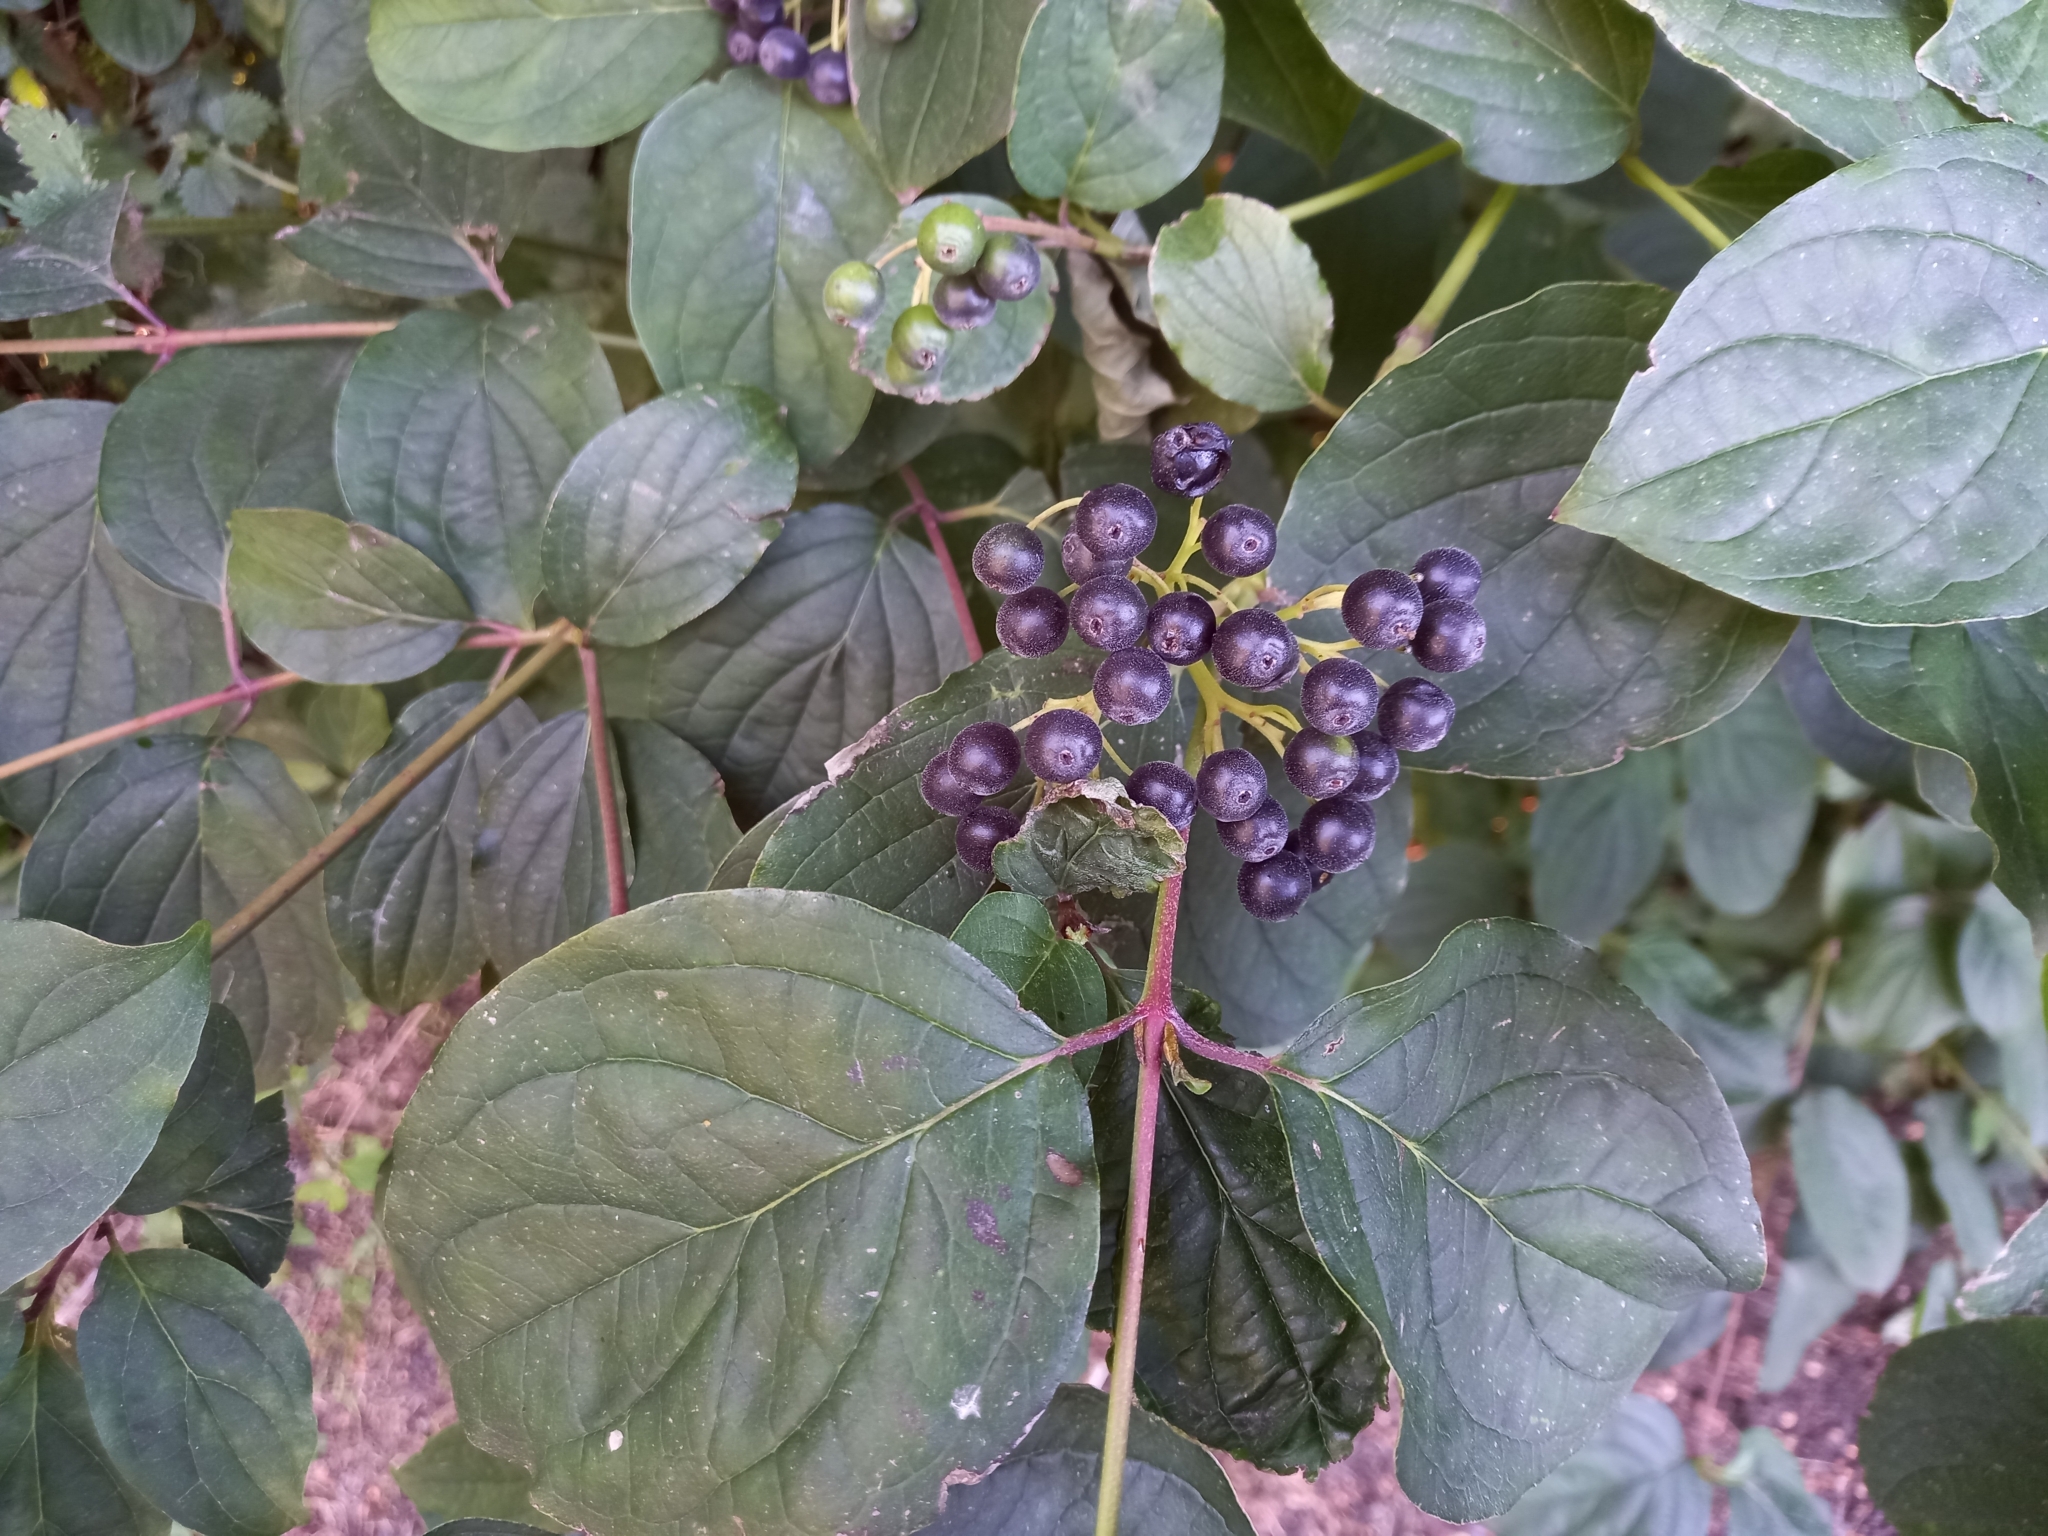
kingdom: Plantae
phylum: Tracheophyta
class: Magnoliopsida
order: Cornales
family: Cornaceae
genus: Cornus
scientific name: Cornus sanguinea
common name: Dogwood
